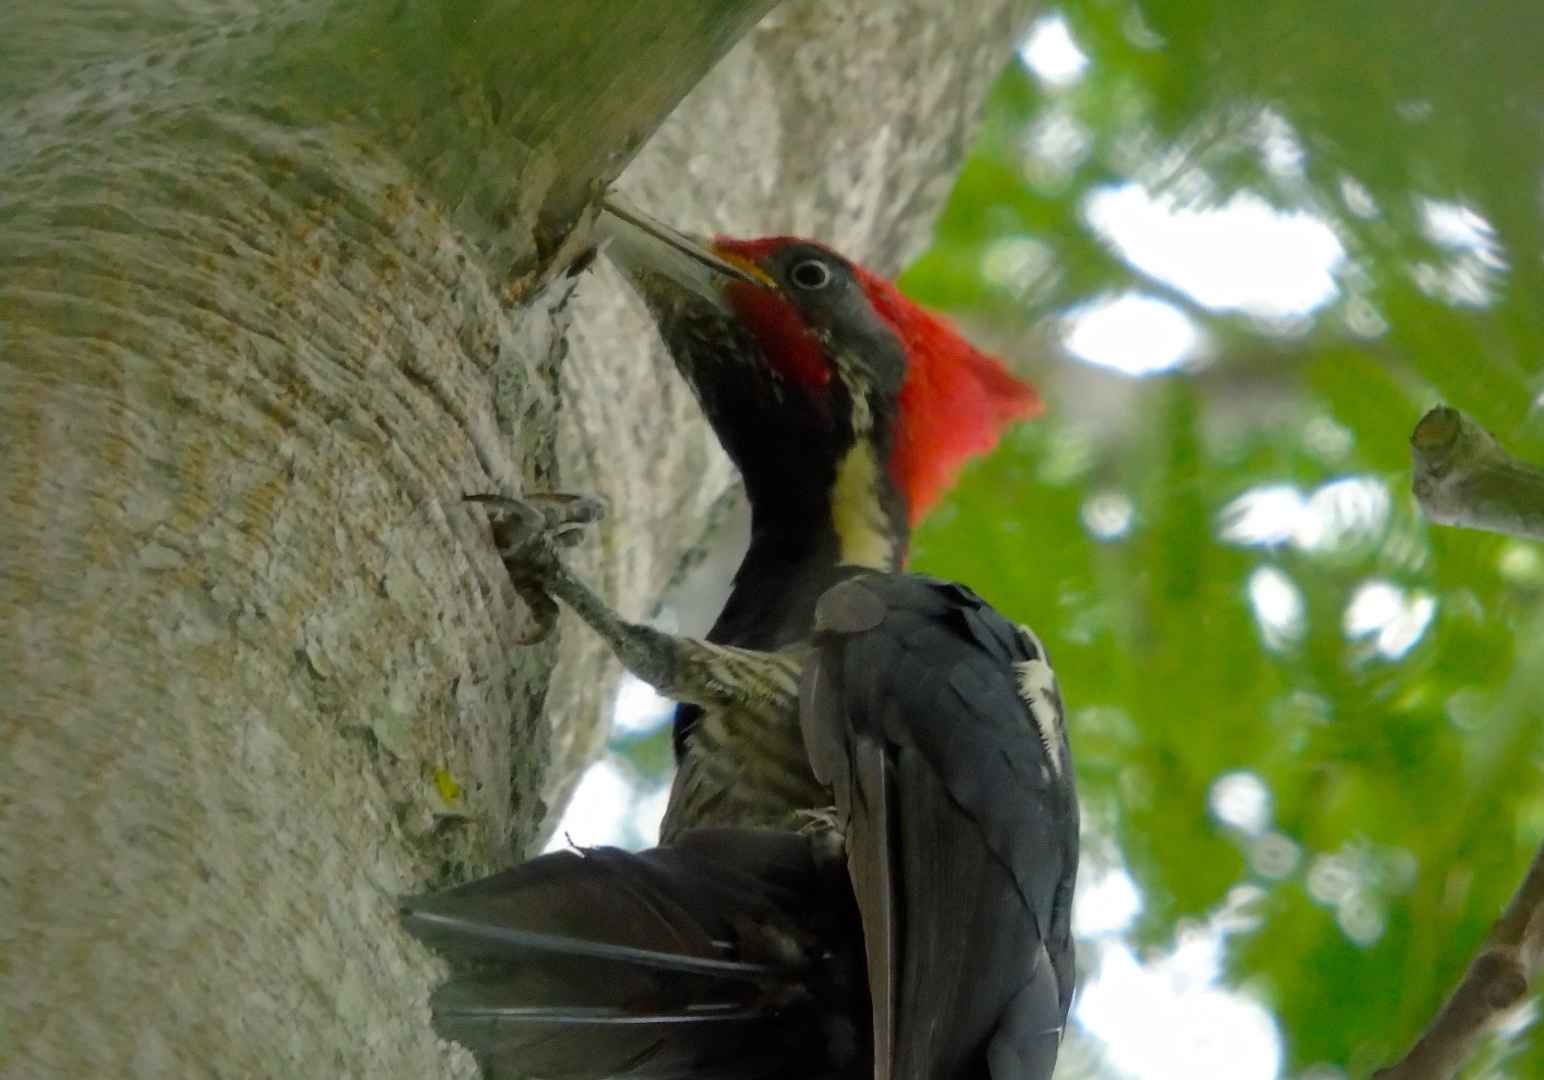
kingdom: Animalia
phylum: Chordata
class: Aves
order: Piciformes
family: Picidae
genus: Dryocopus
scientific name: Dryocopus lineatus
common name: Lineated woodpecker
